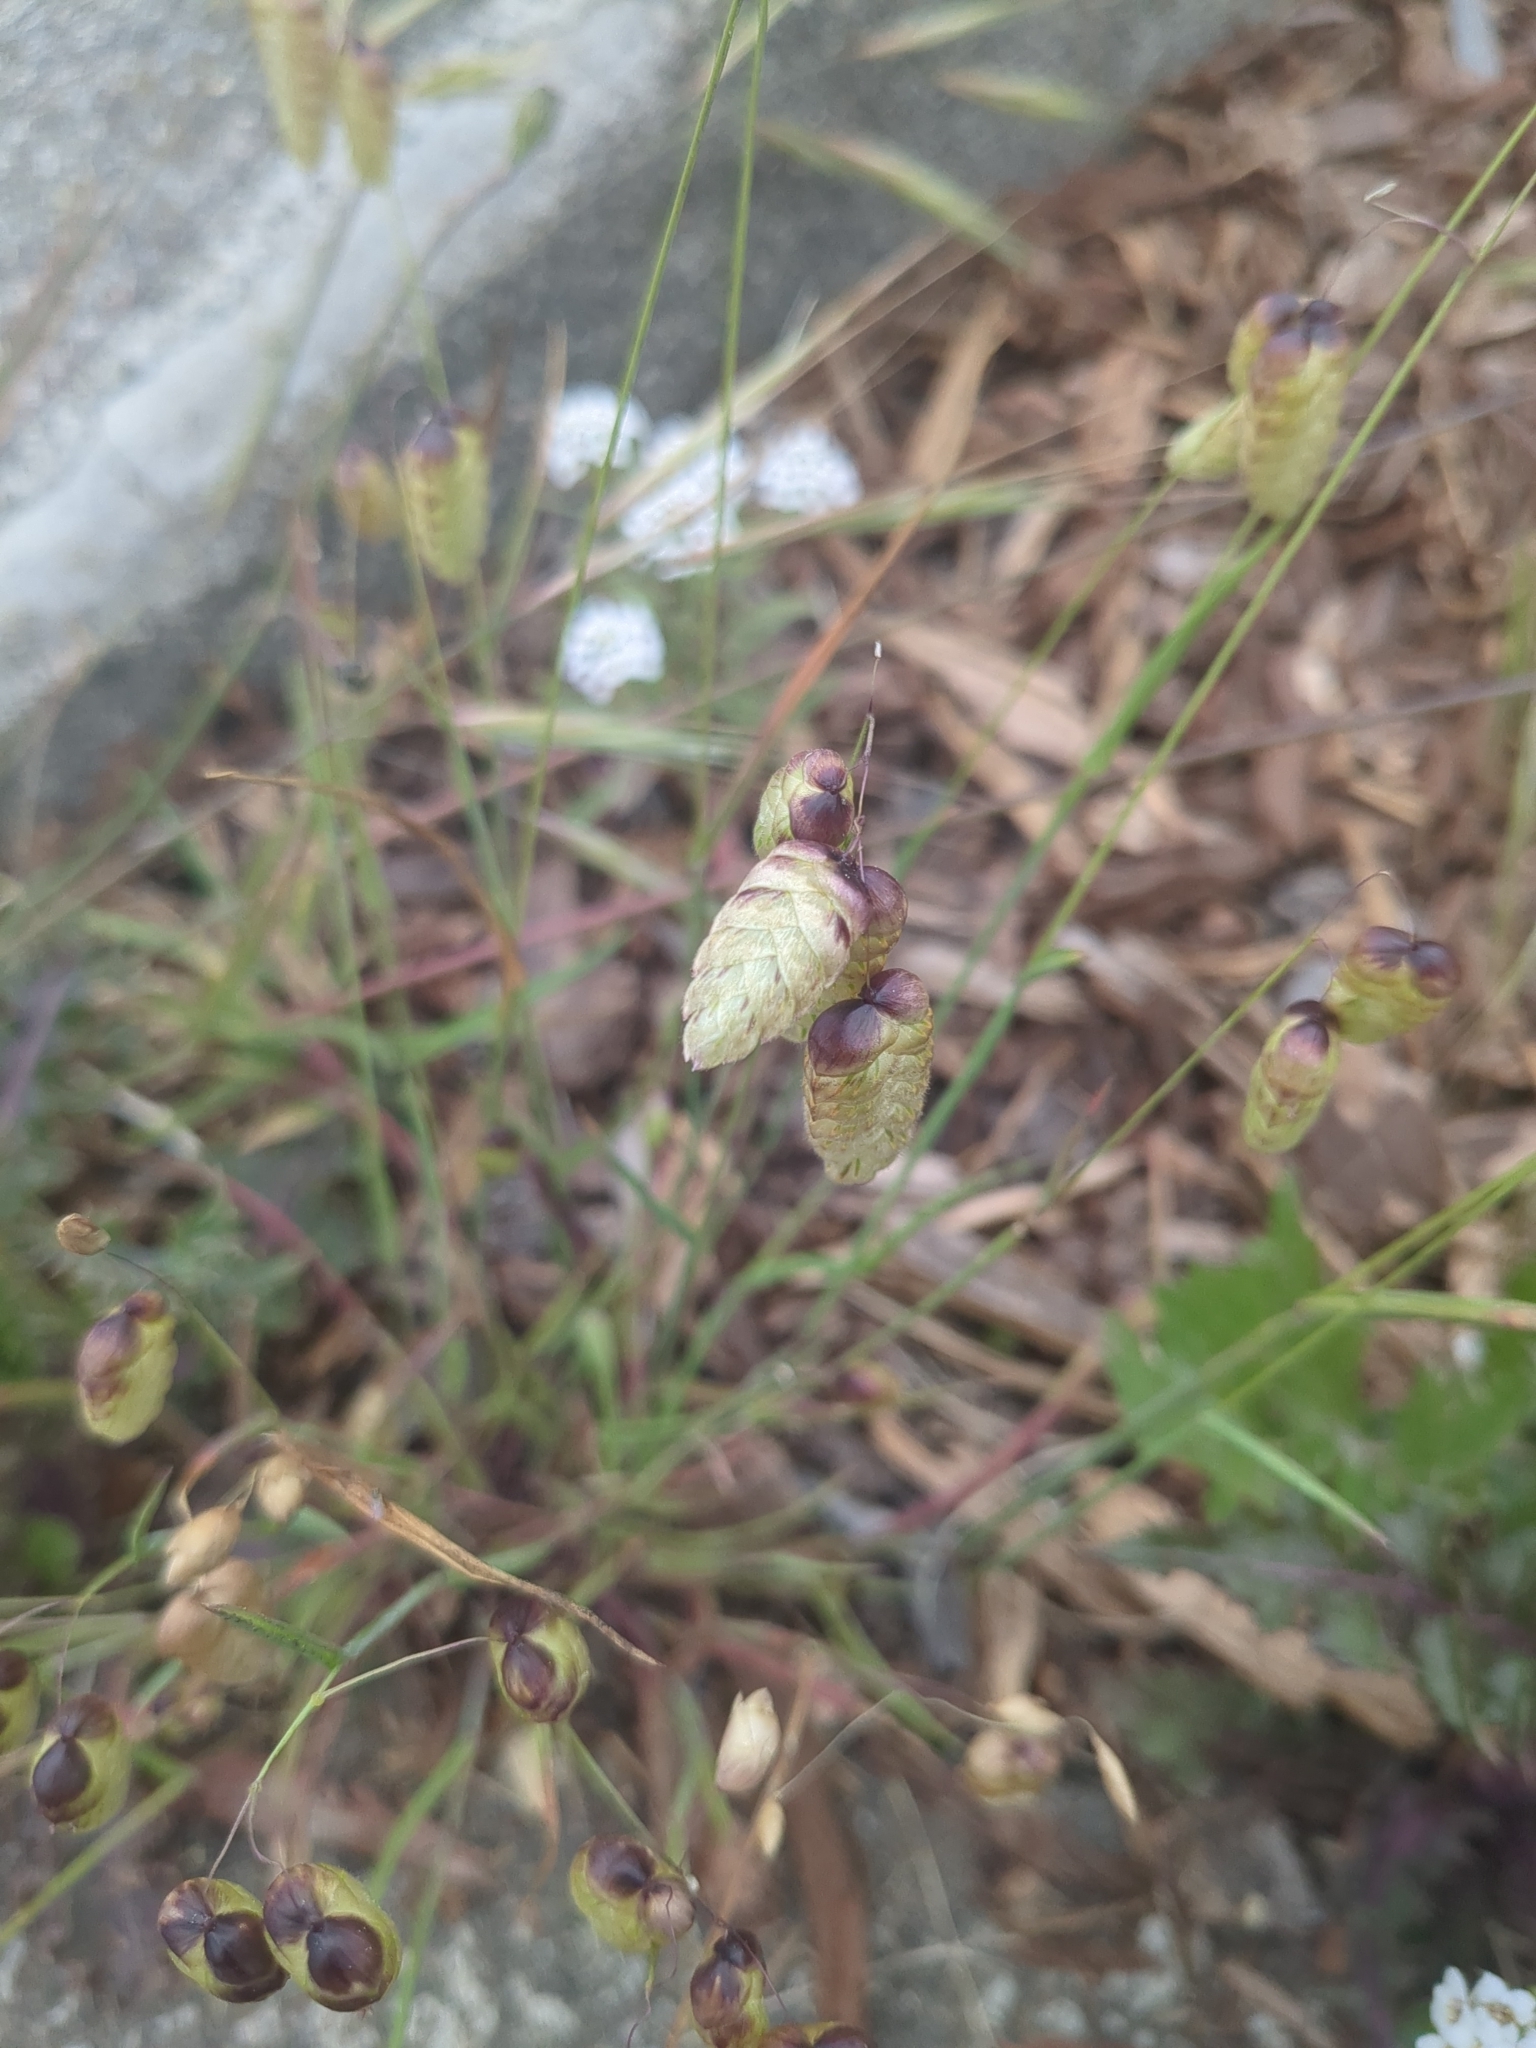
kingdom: Plantae
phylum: Tracheophyta
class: Liliopsida
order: Poales
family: Poaceae
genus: Briza
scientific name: Briza maxima
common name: Big quakinggrass
